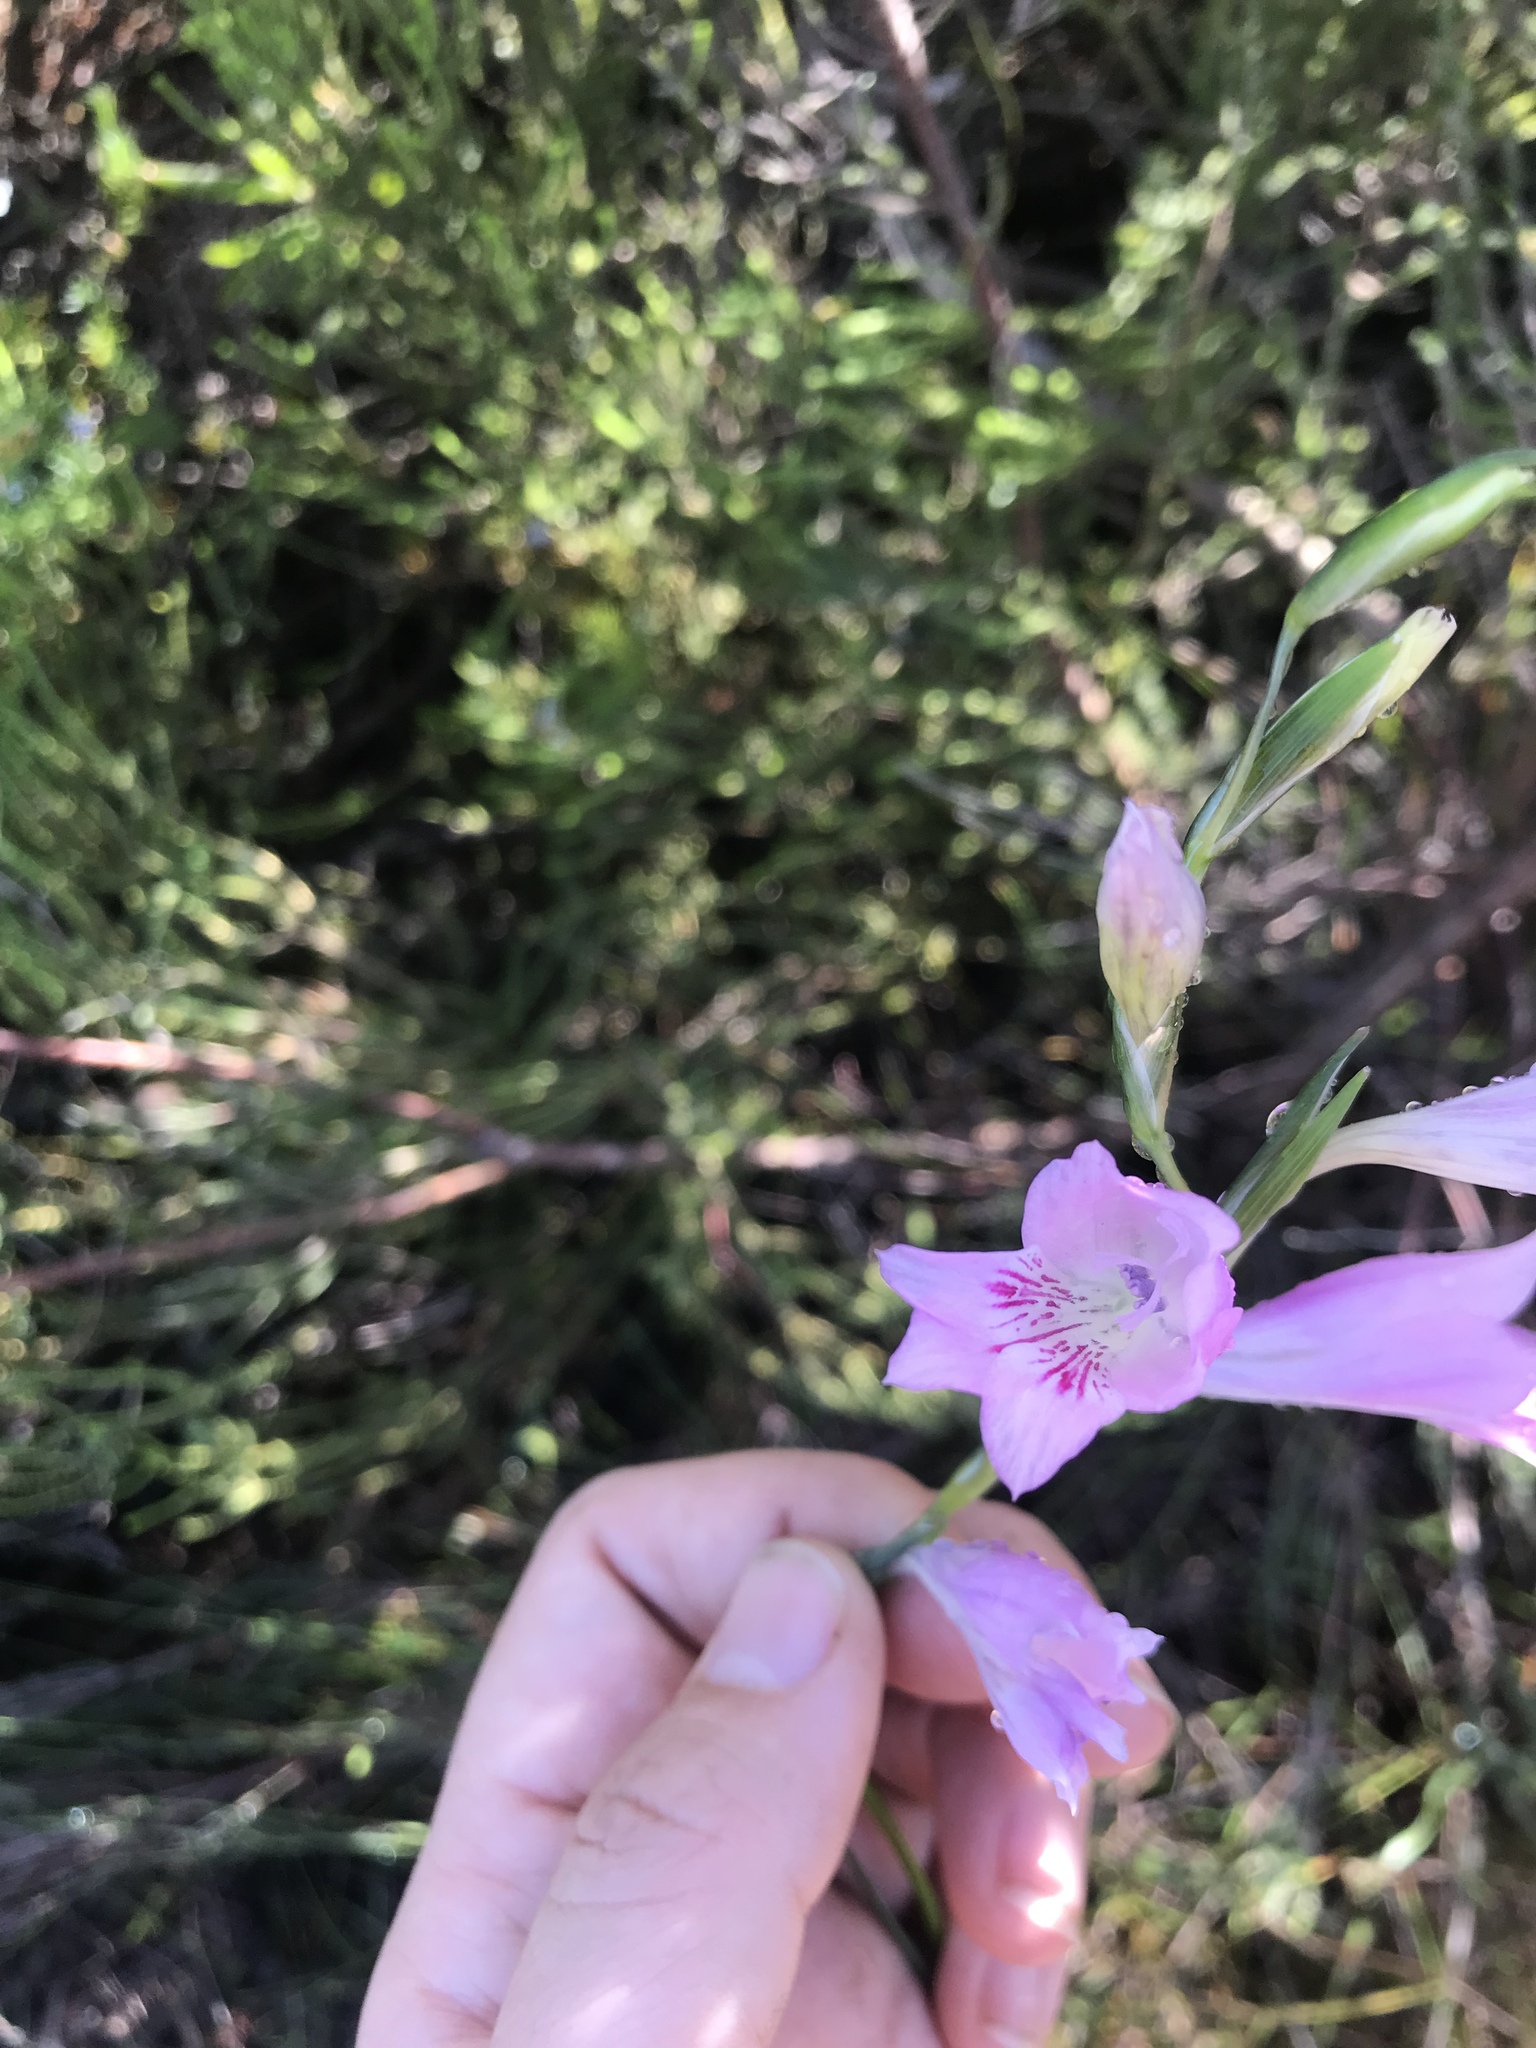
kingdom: Plantae
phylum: Tracheophyta
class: Liliopsida
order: Asparagales
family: Iridaceae
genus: Gladiolus
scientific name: Gladiolus hirsutus
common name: Small pink afrikaner
